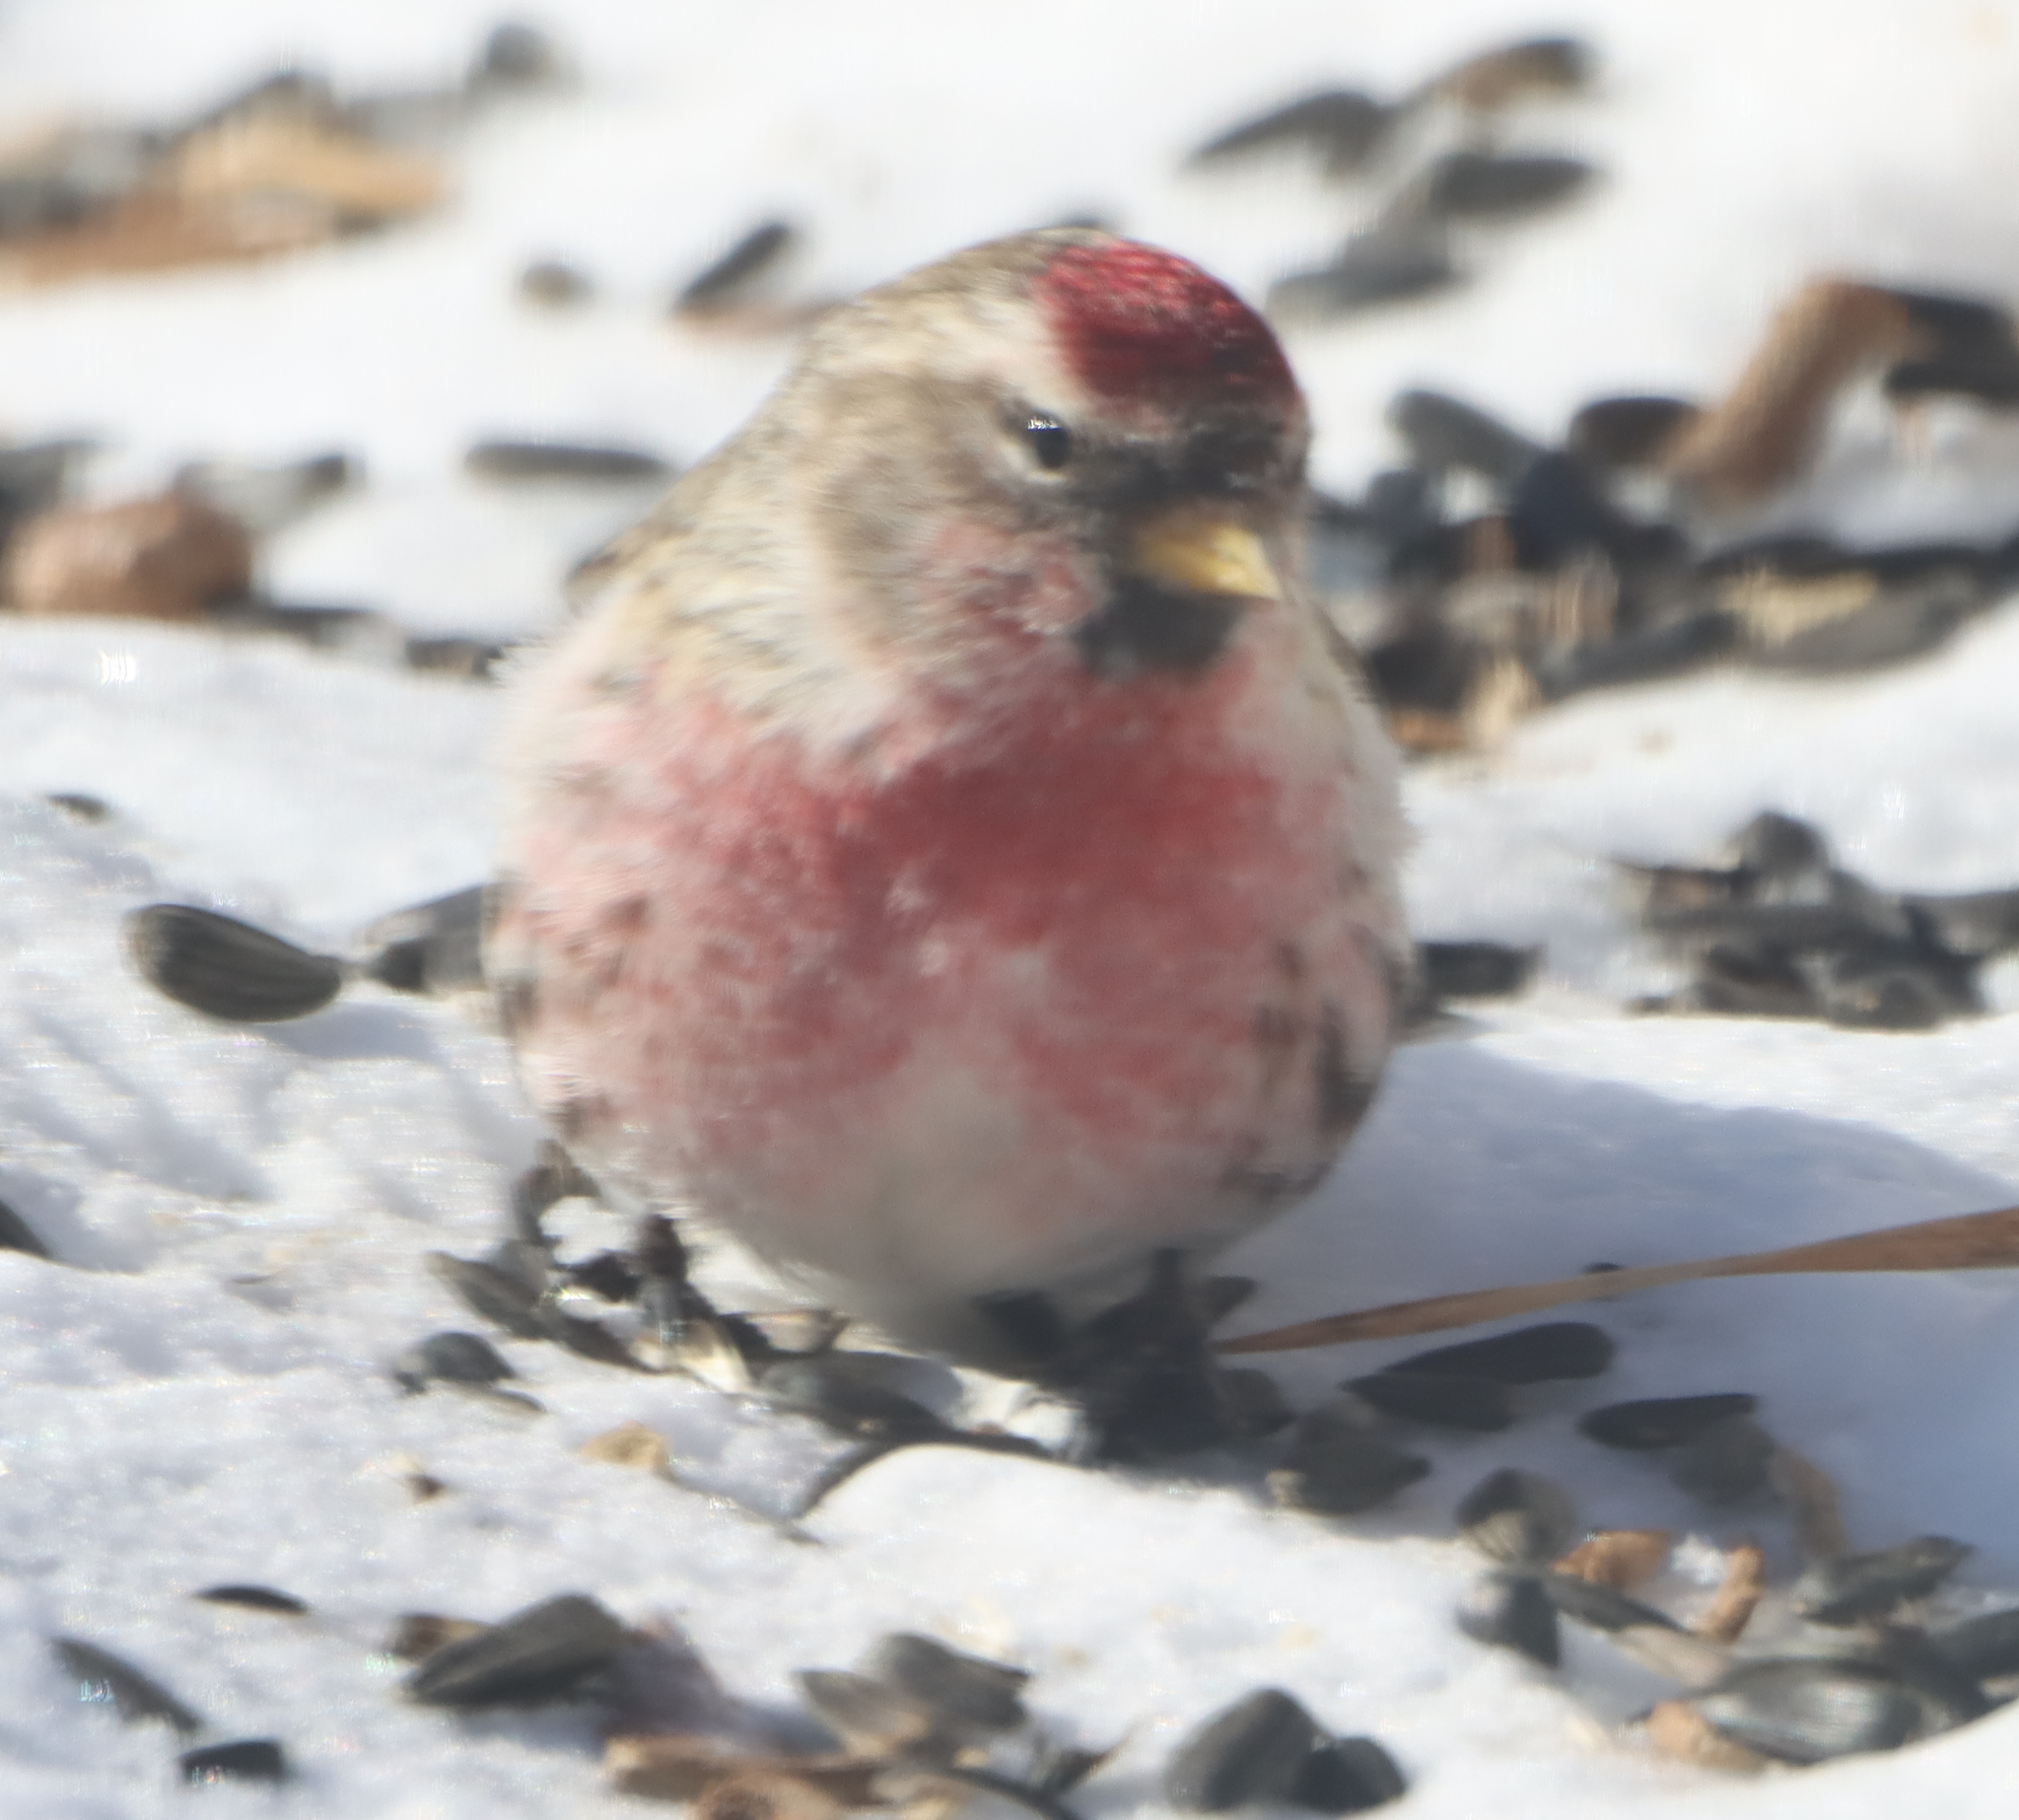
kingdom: Animalia
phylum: Chordata
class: Aves
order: Passeriformes
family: Fringillidae
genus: Acanthis
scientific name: Acanthis flammea
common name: Common redpoll
